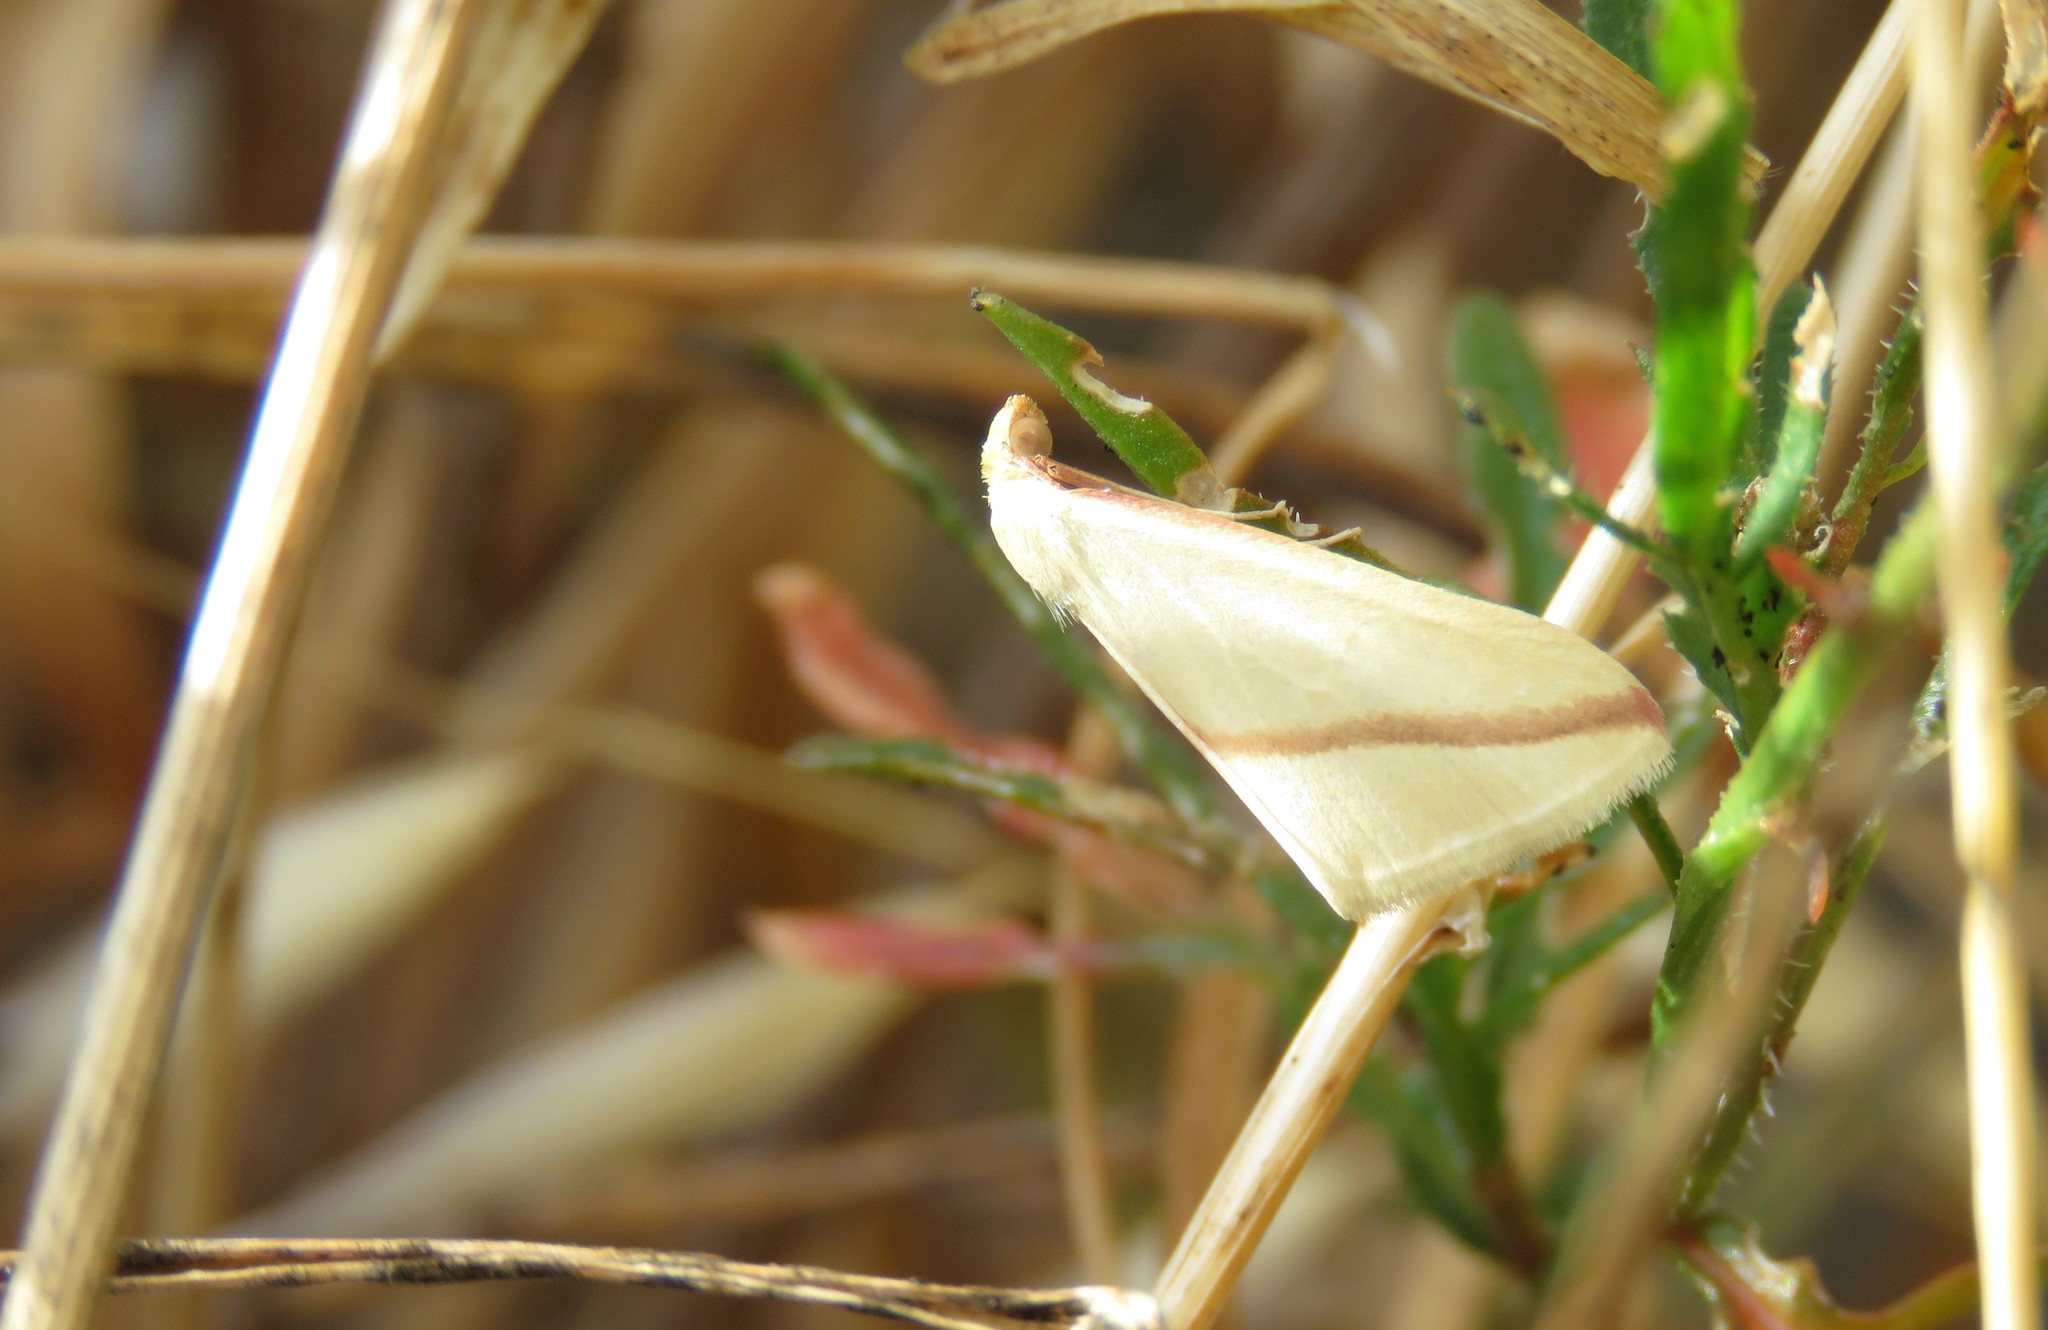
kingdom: Animalia
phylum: Arthropoda
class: Insecta
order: Lepidoptera
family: Geometridae
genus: Rhodometra
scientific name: Rhodometra sacraria
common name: Vestal
